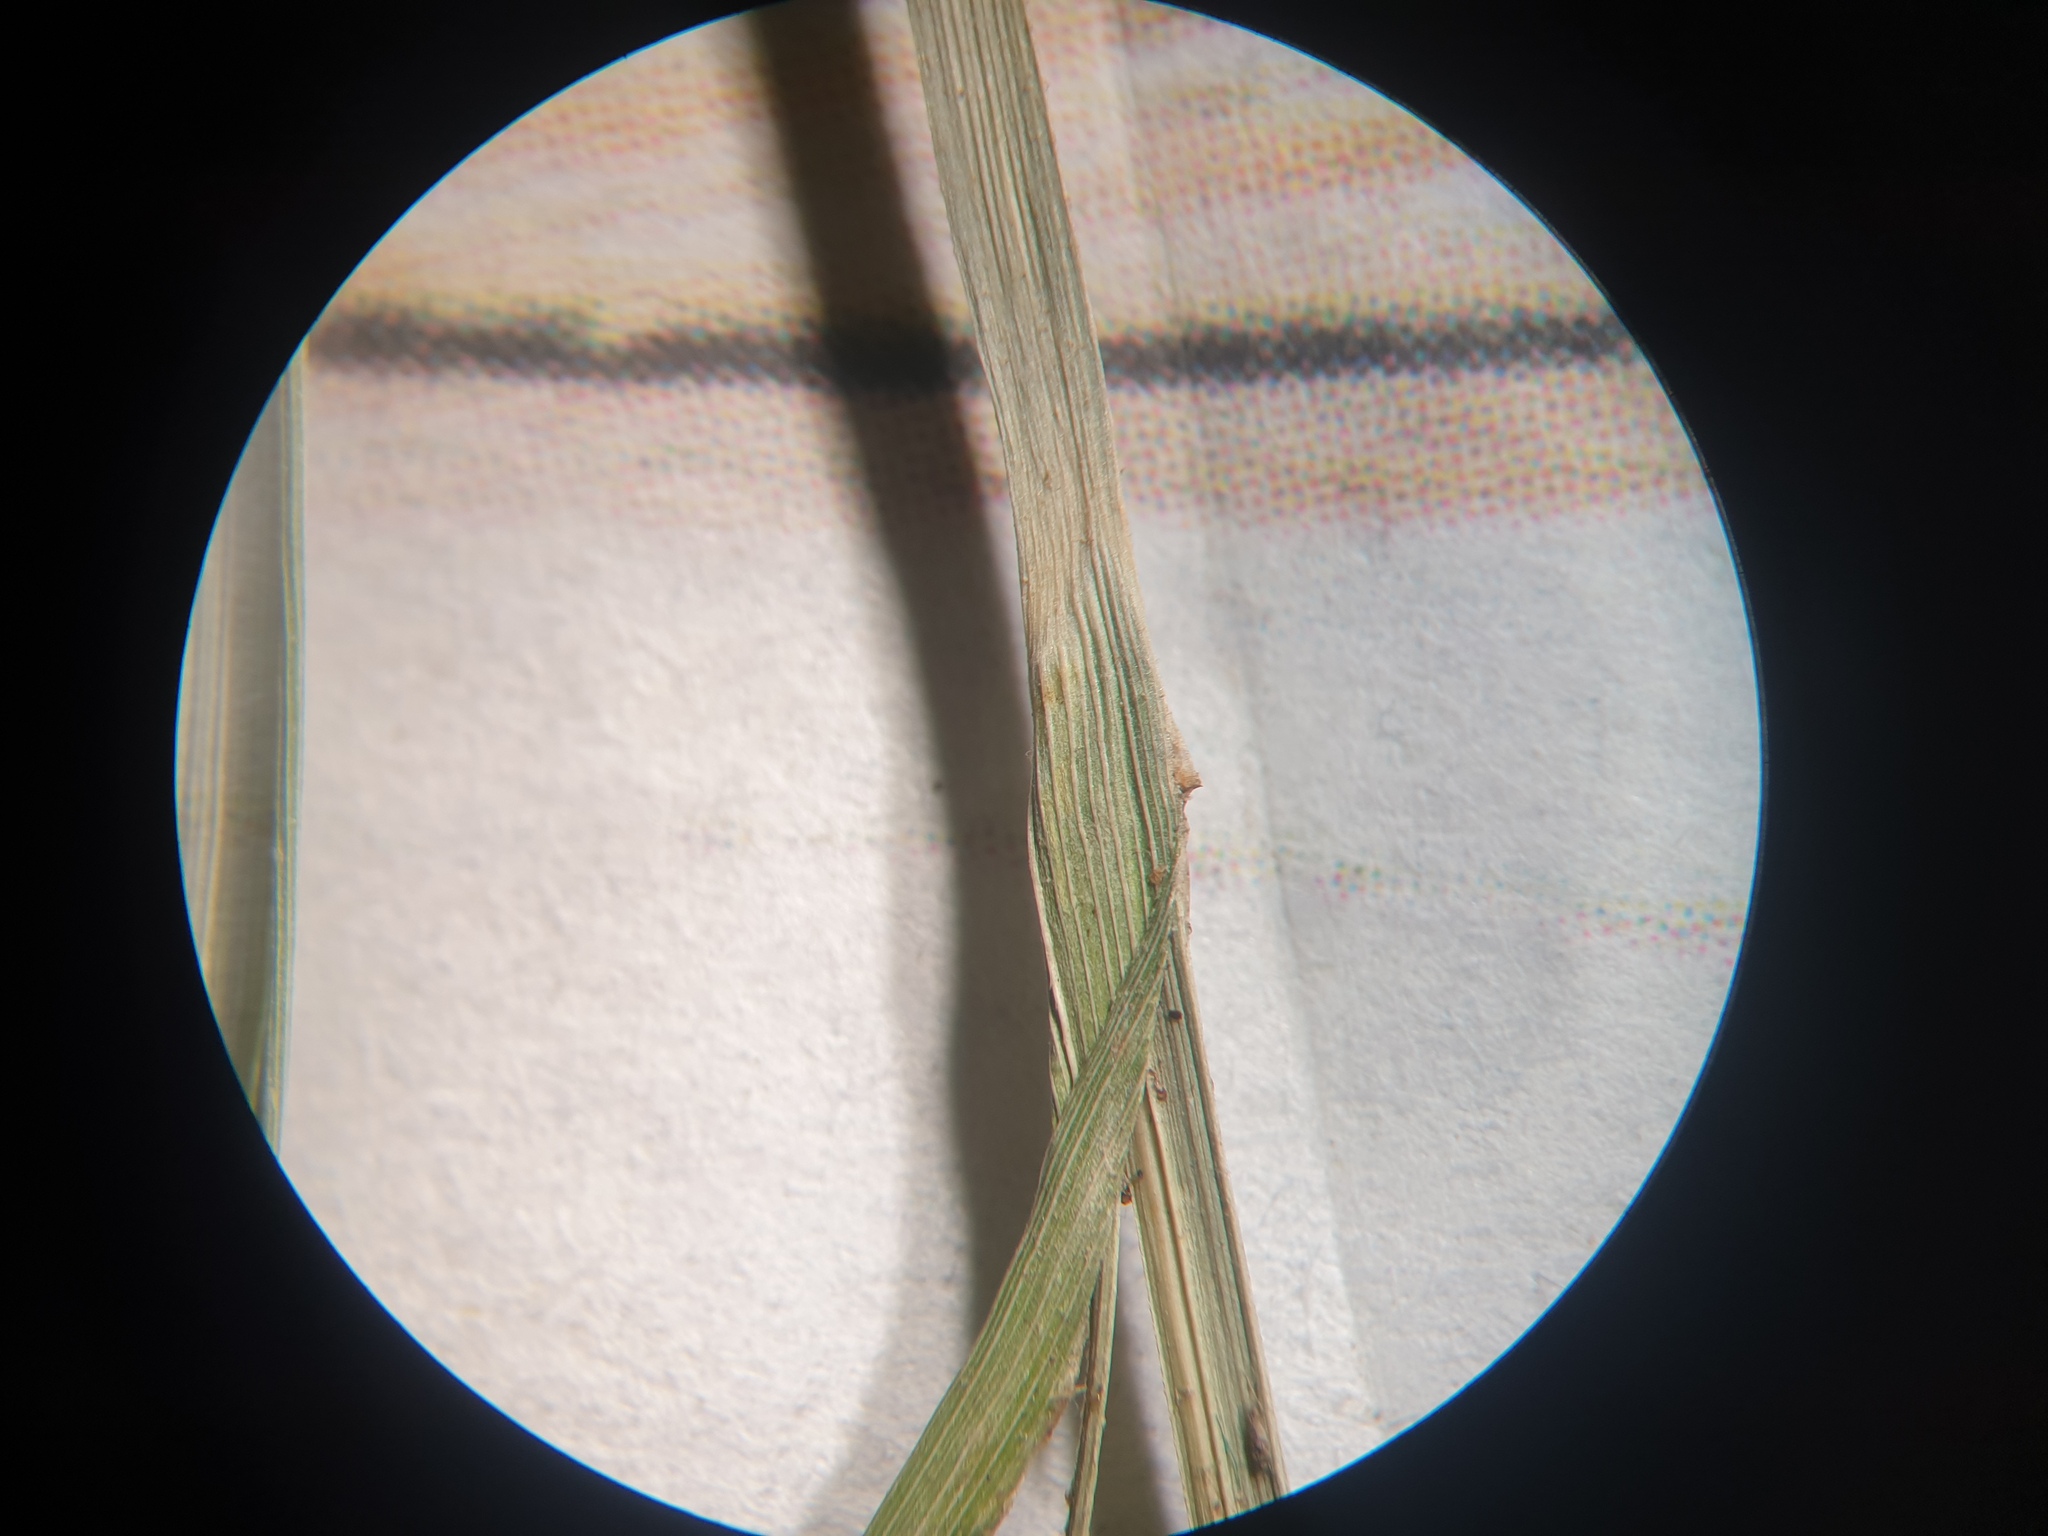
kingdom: Plantae
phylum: Tracheophyta
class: Liliopsida
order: Poales
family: Cyperaceae
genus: Carex
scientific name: Carex joorii
